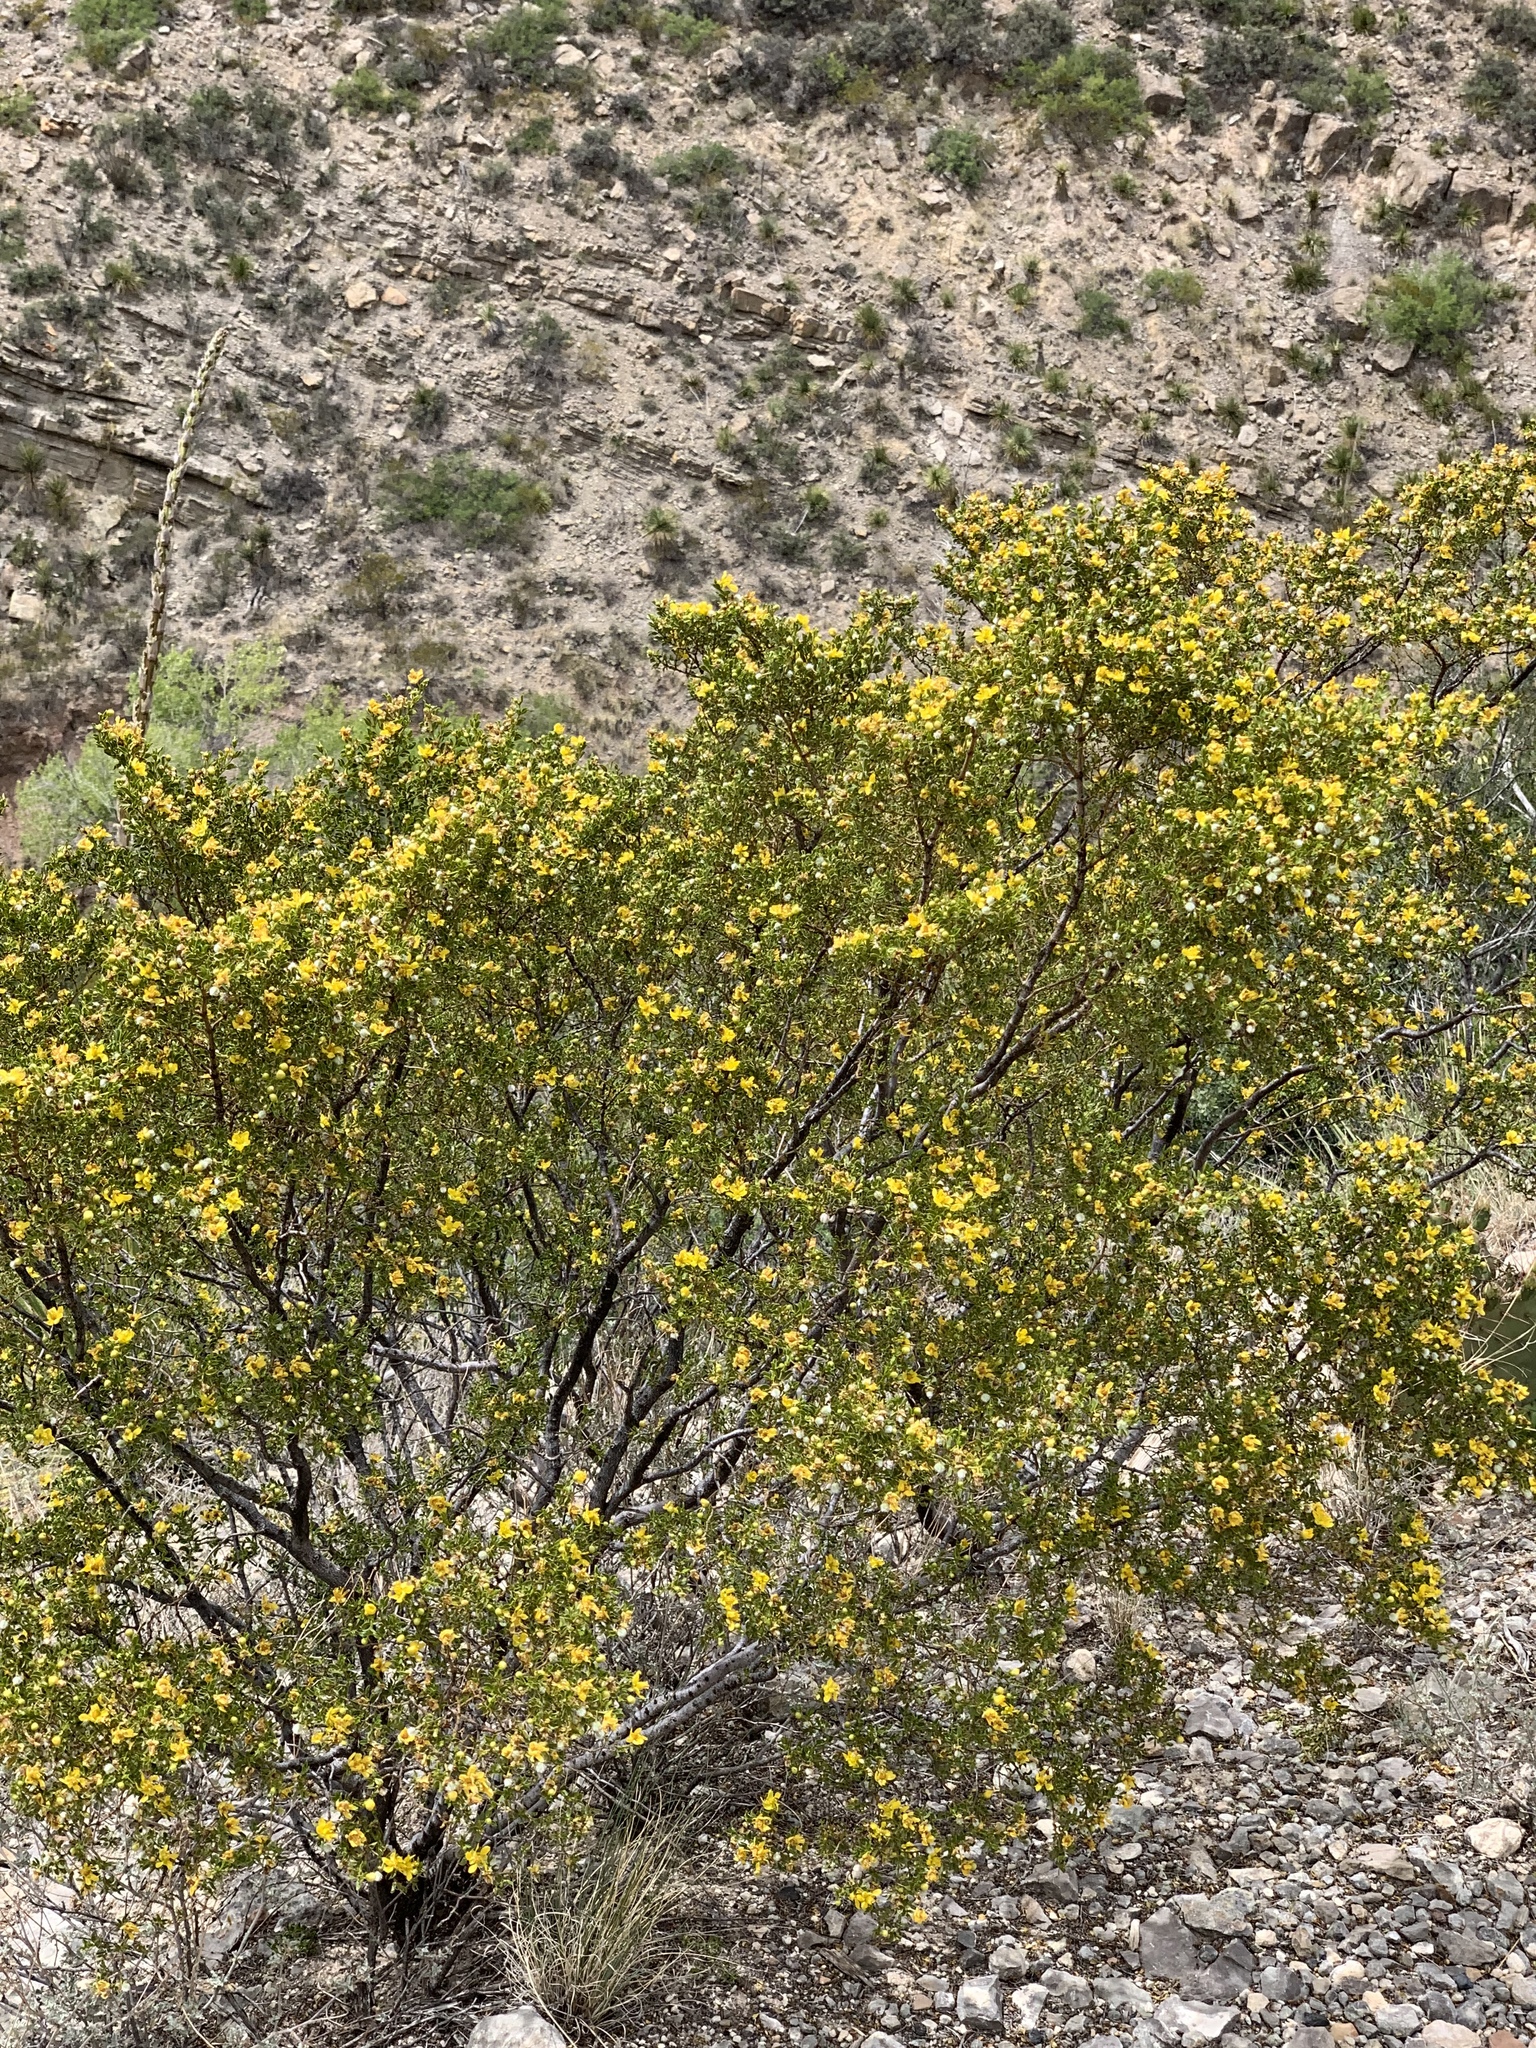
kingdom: Plantae
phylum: Tracheophyta
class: Magnoliopsida
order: Zygophyllales
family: Zygophyllaceae
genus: Larrea
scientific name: Larrea tridentata
